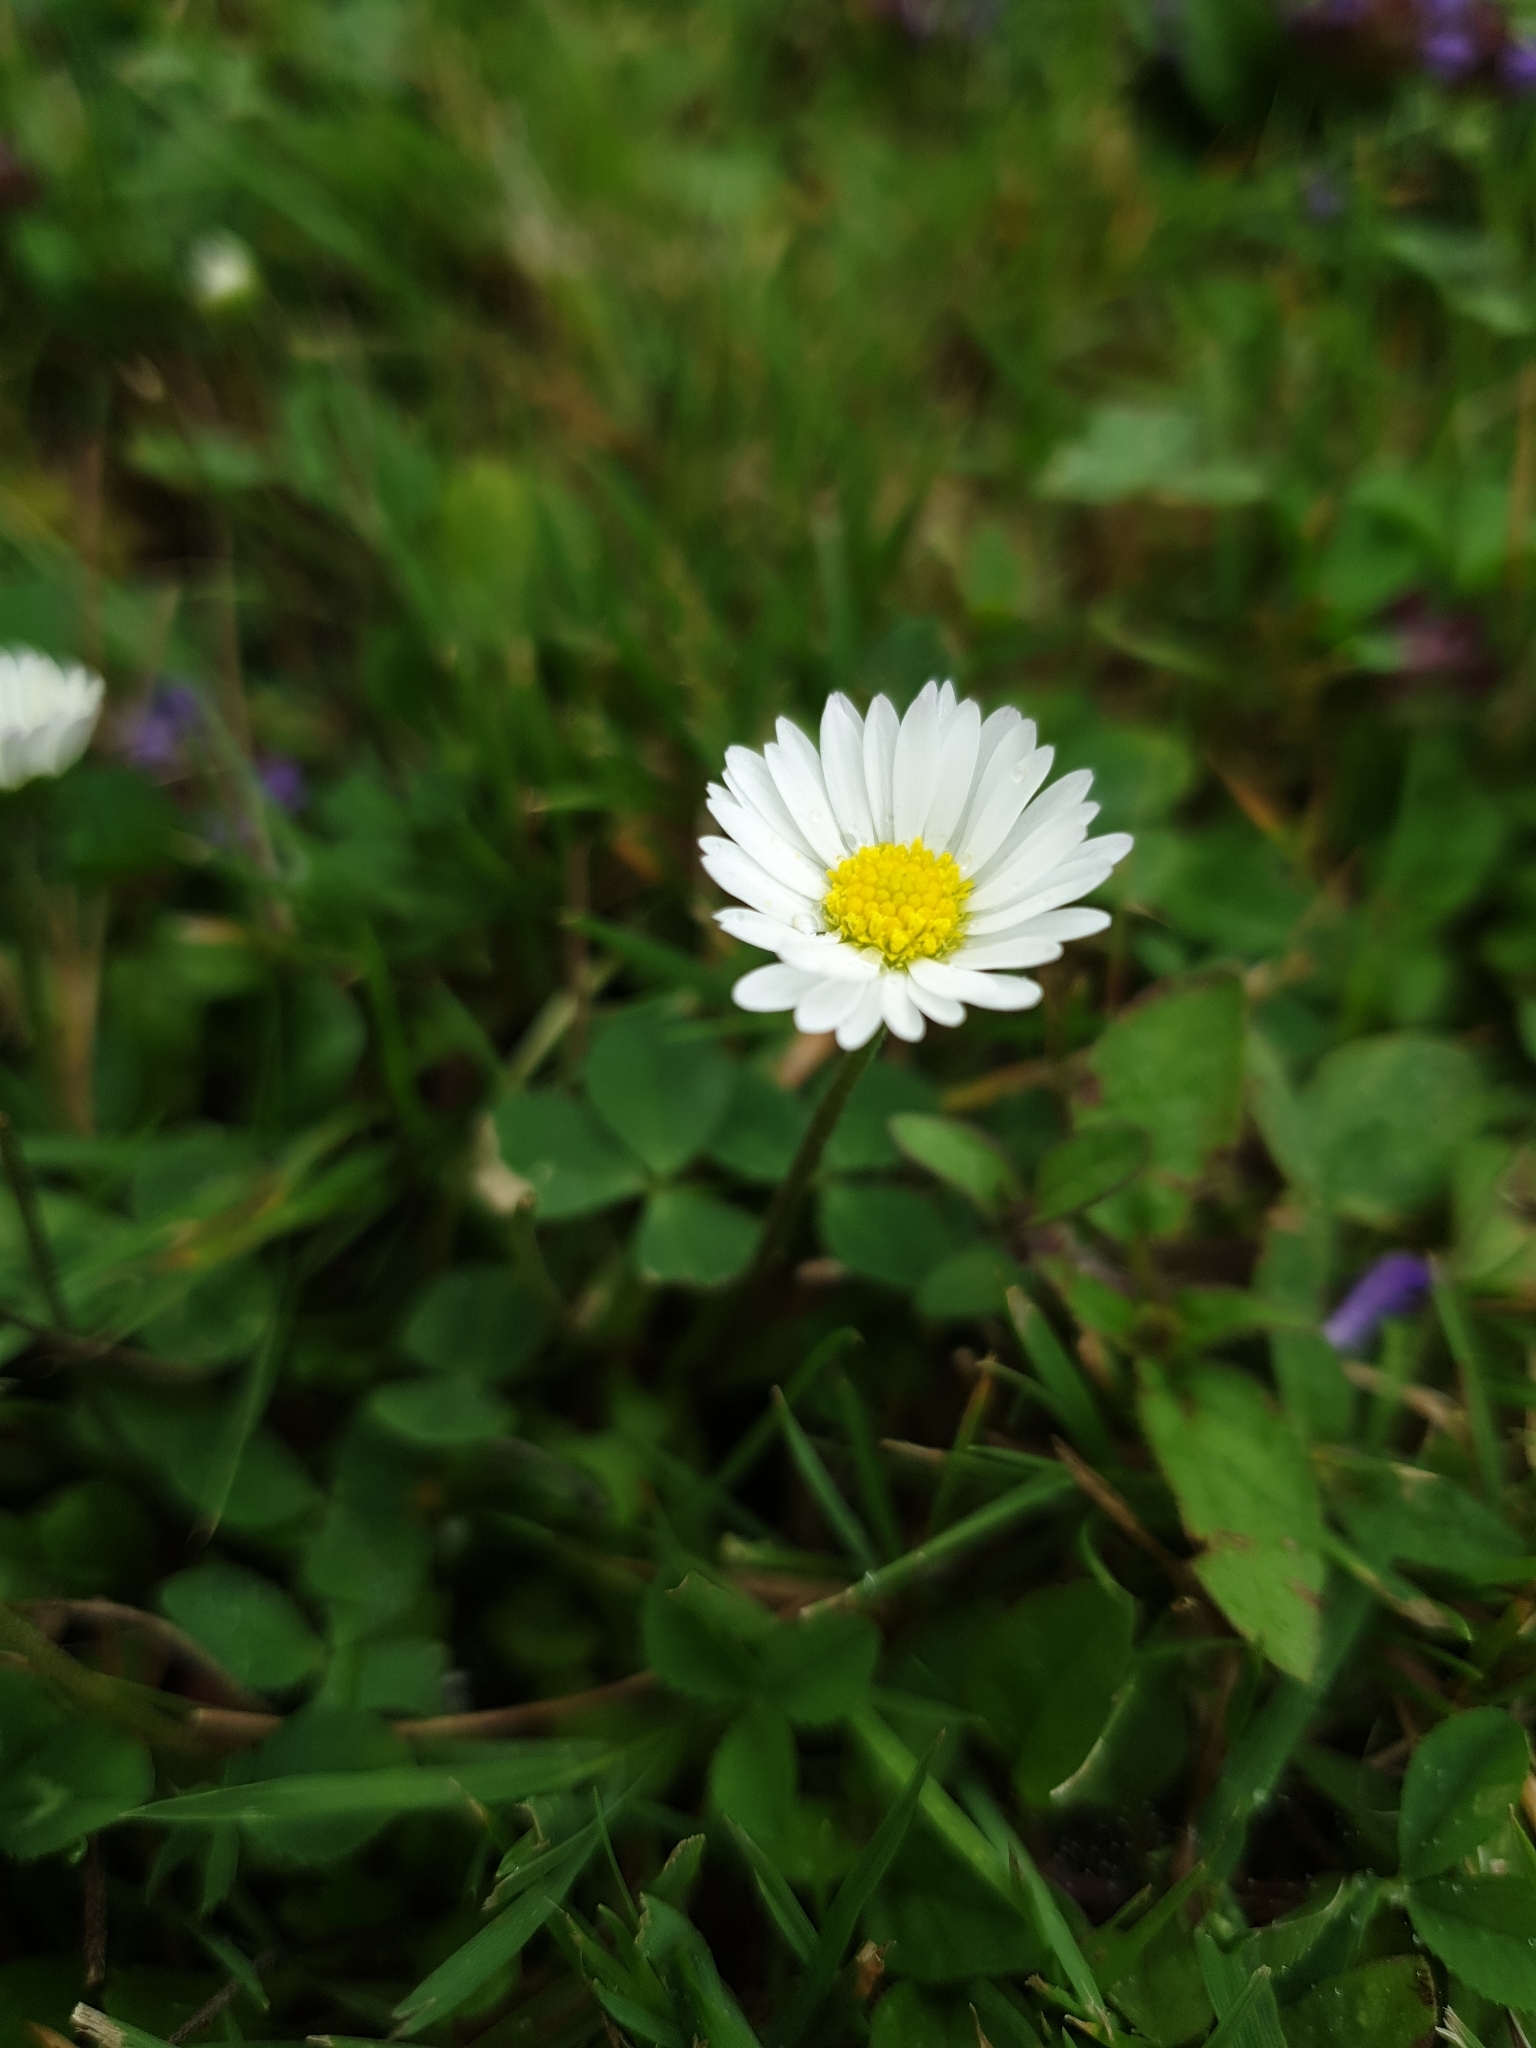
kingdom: Plantae
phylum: Tracheophyta
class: Magnoliopsida
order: Asterales
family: Asteraceae
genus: Bellis
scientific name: Bellis perennis
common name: Lawndaisy
